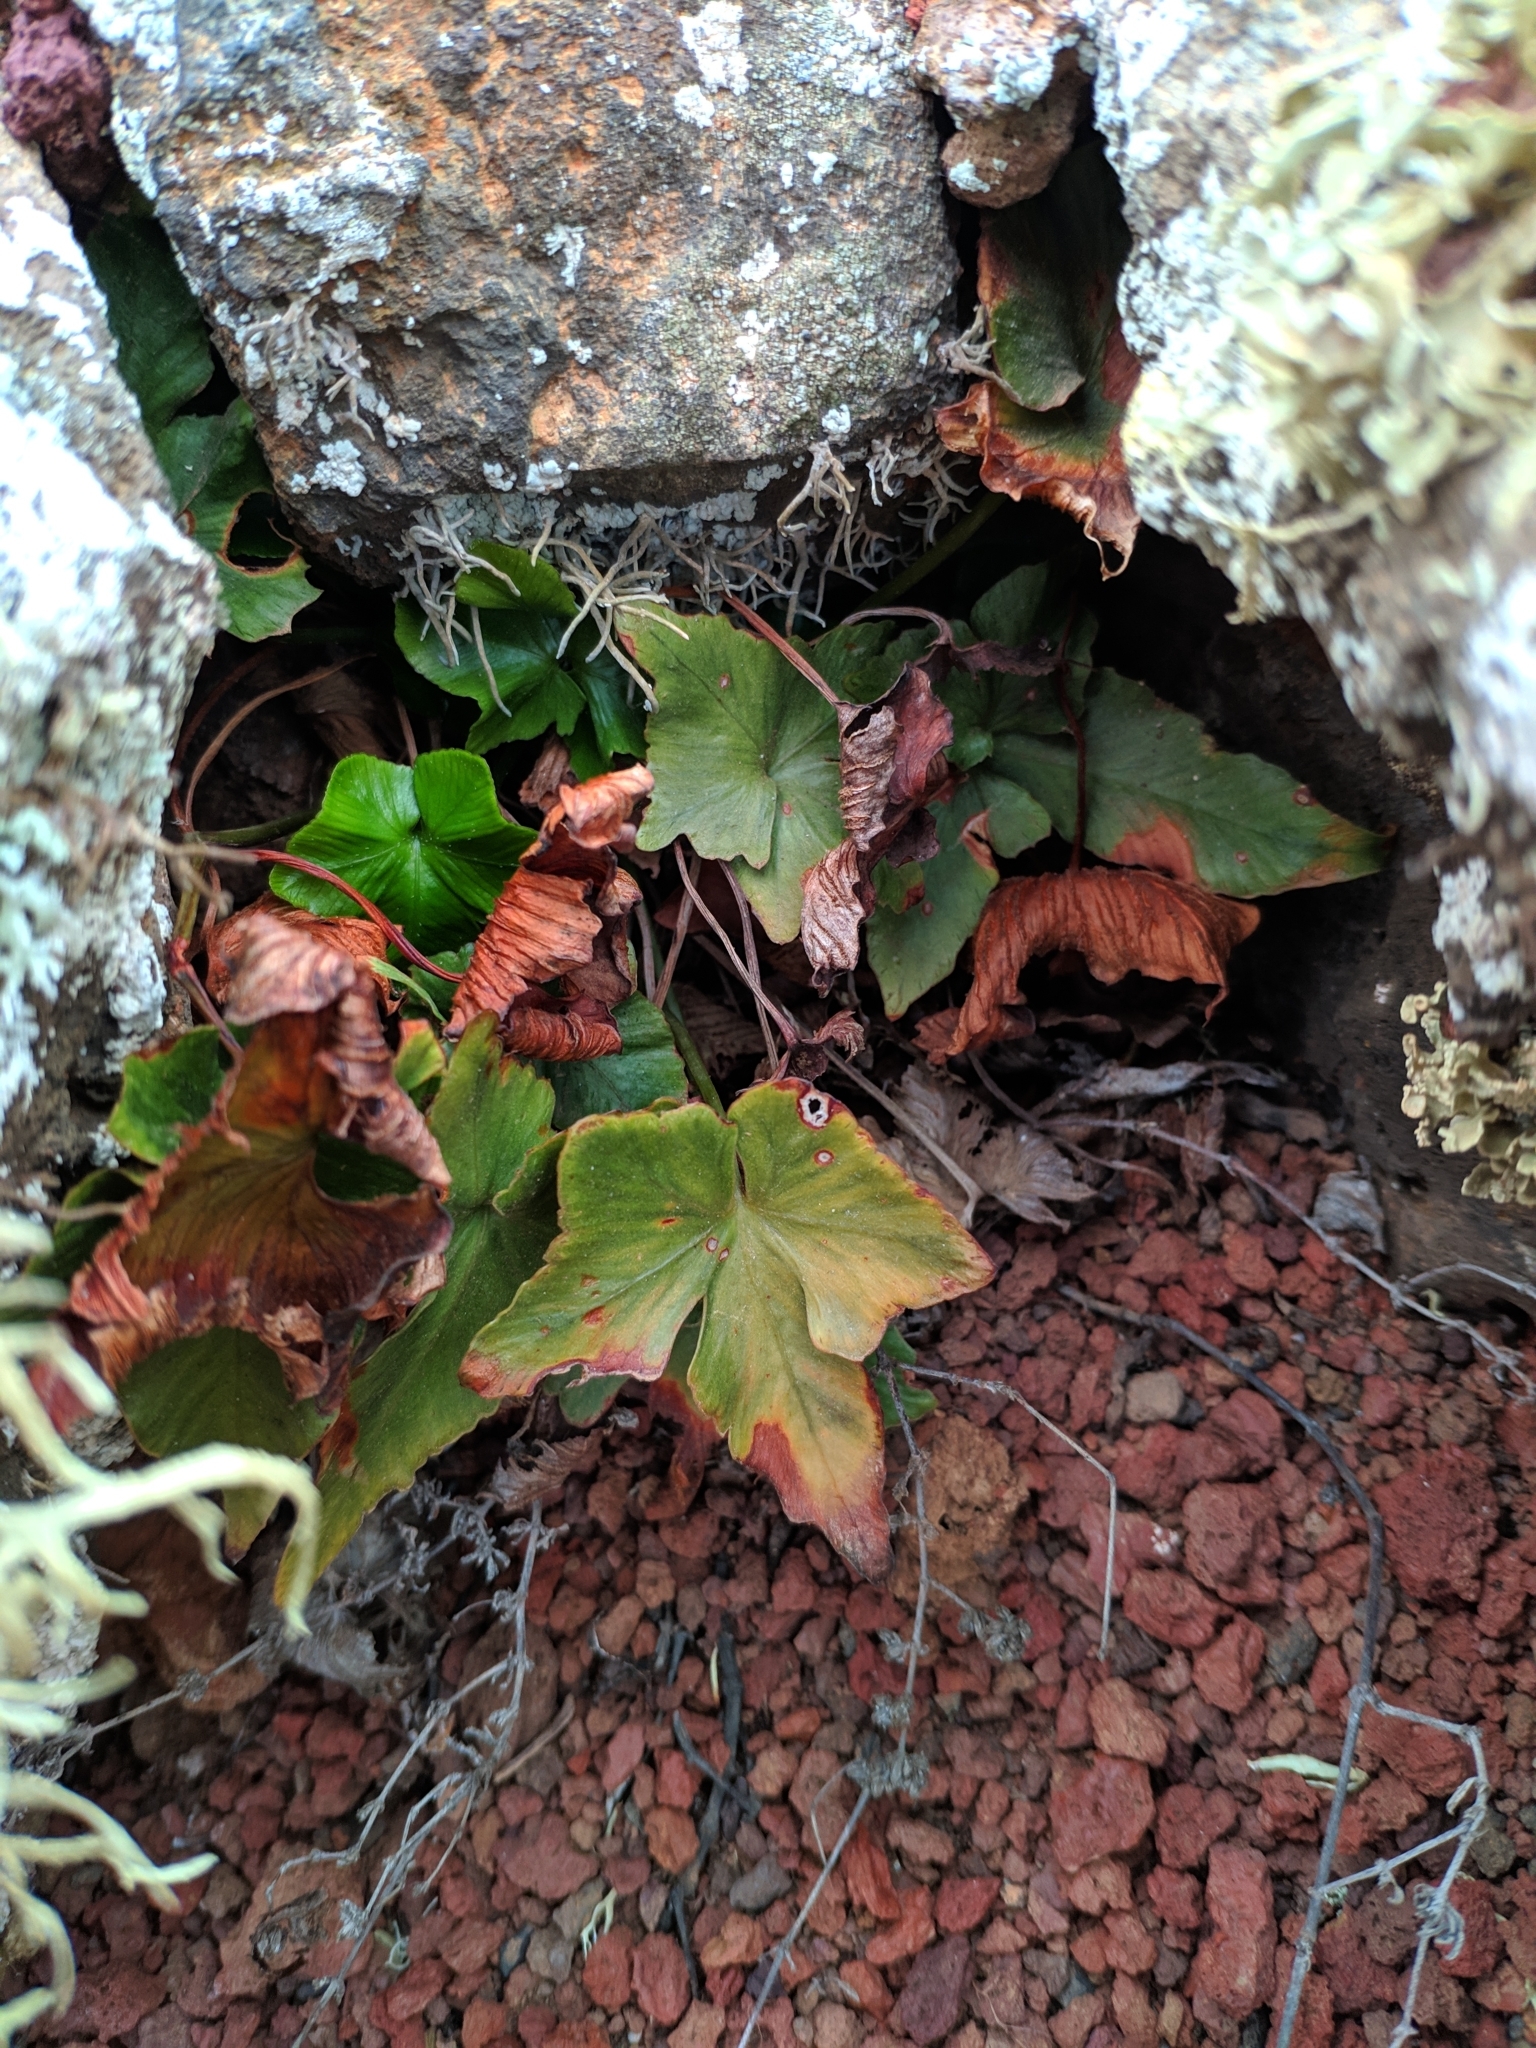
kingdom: Plantae
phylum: Tracheophyta
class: Polypodiopsida
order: Polypodiales
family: Aspleniaceae
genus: Asplenium
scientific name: Asplenium hemionitis
